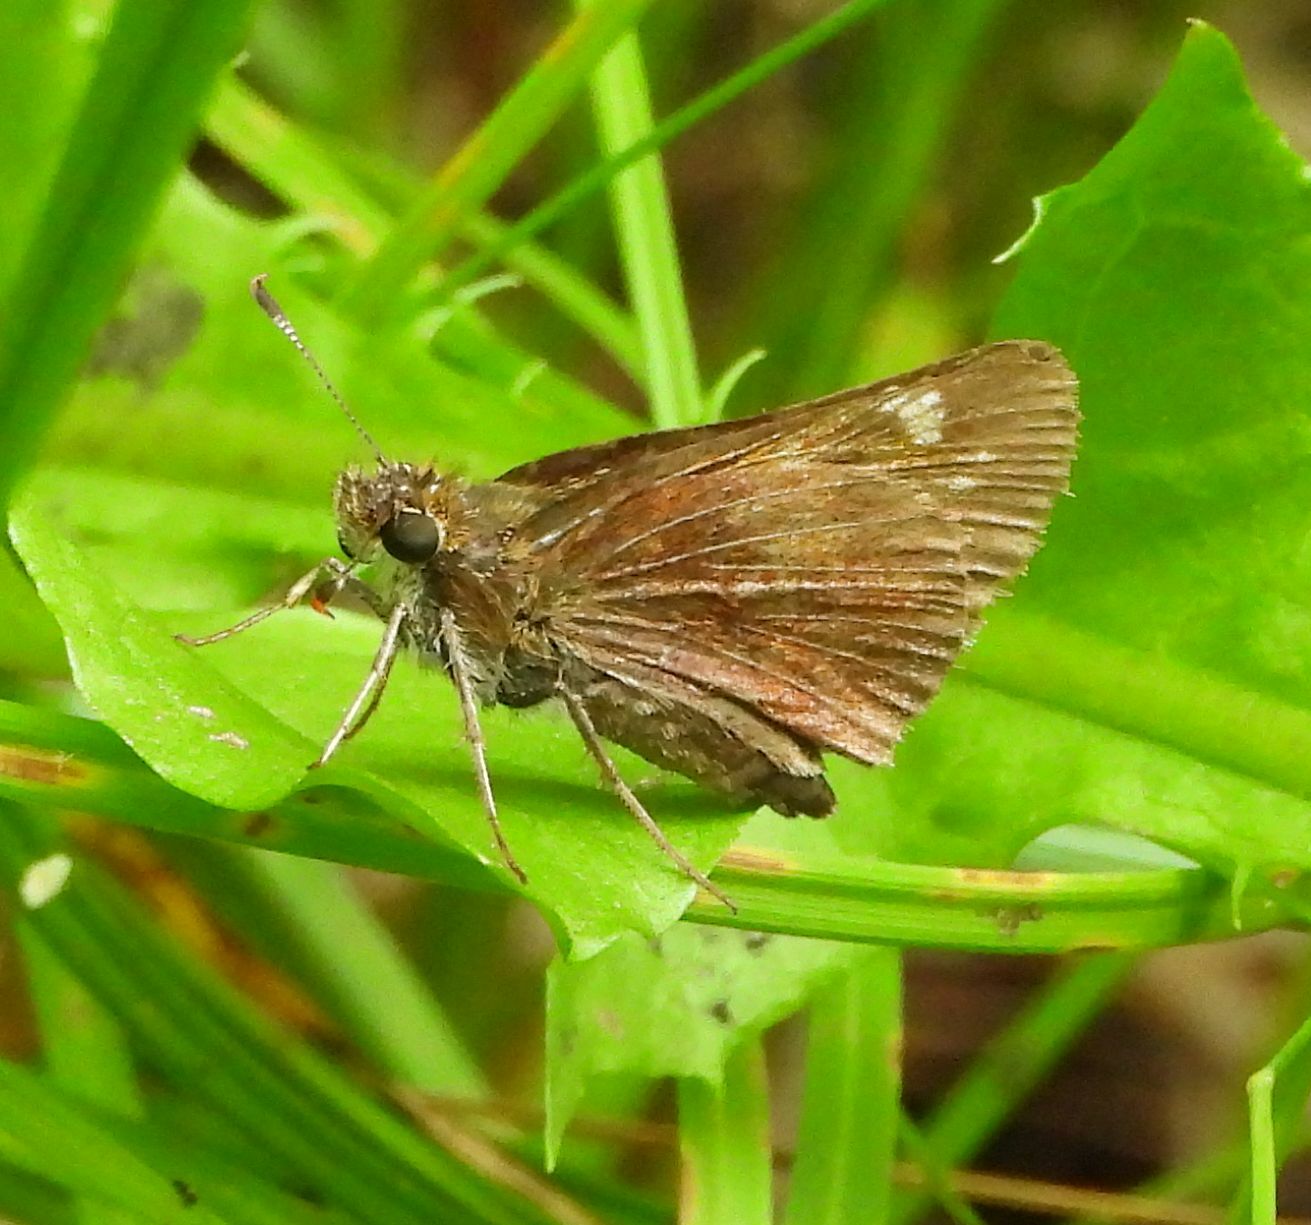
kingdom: Animalia
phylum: Arthropoda
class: Insecta
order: Lepidoptera
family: Hesperiidae
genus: Lon
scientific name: Lon hobomok
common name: Hobomok skipper
